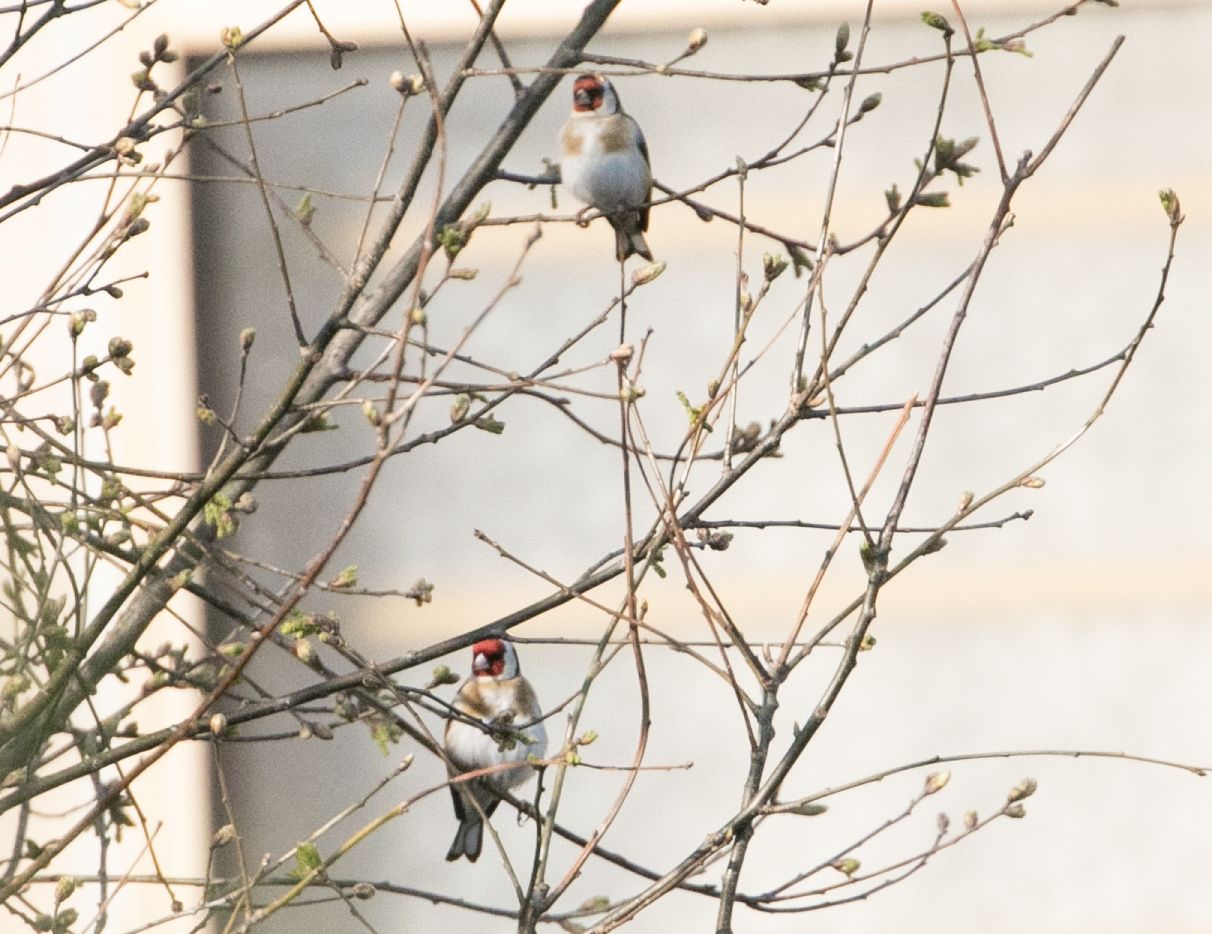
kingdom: Animalia
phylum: Chordata
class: Aves
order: Passeriformes
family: Fringillidae
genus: Carduelis
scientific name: Carduelis carduelis
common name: European goldfinch
